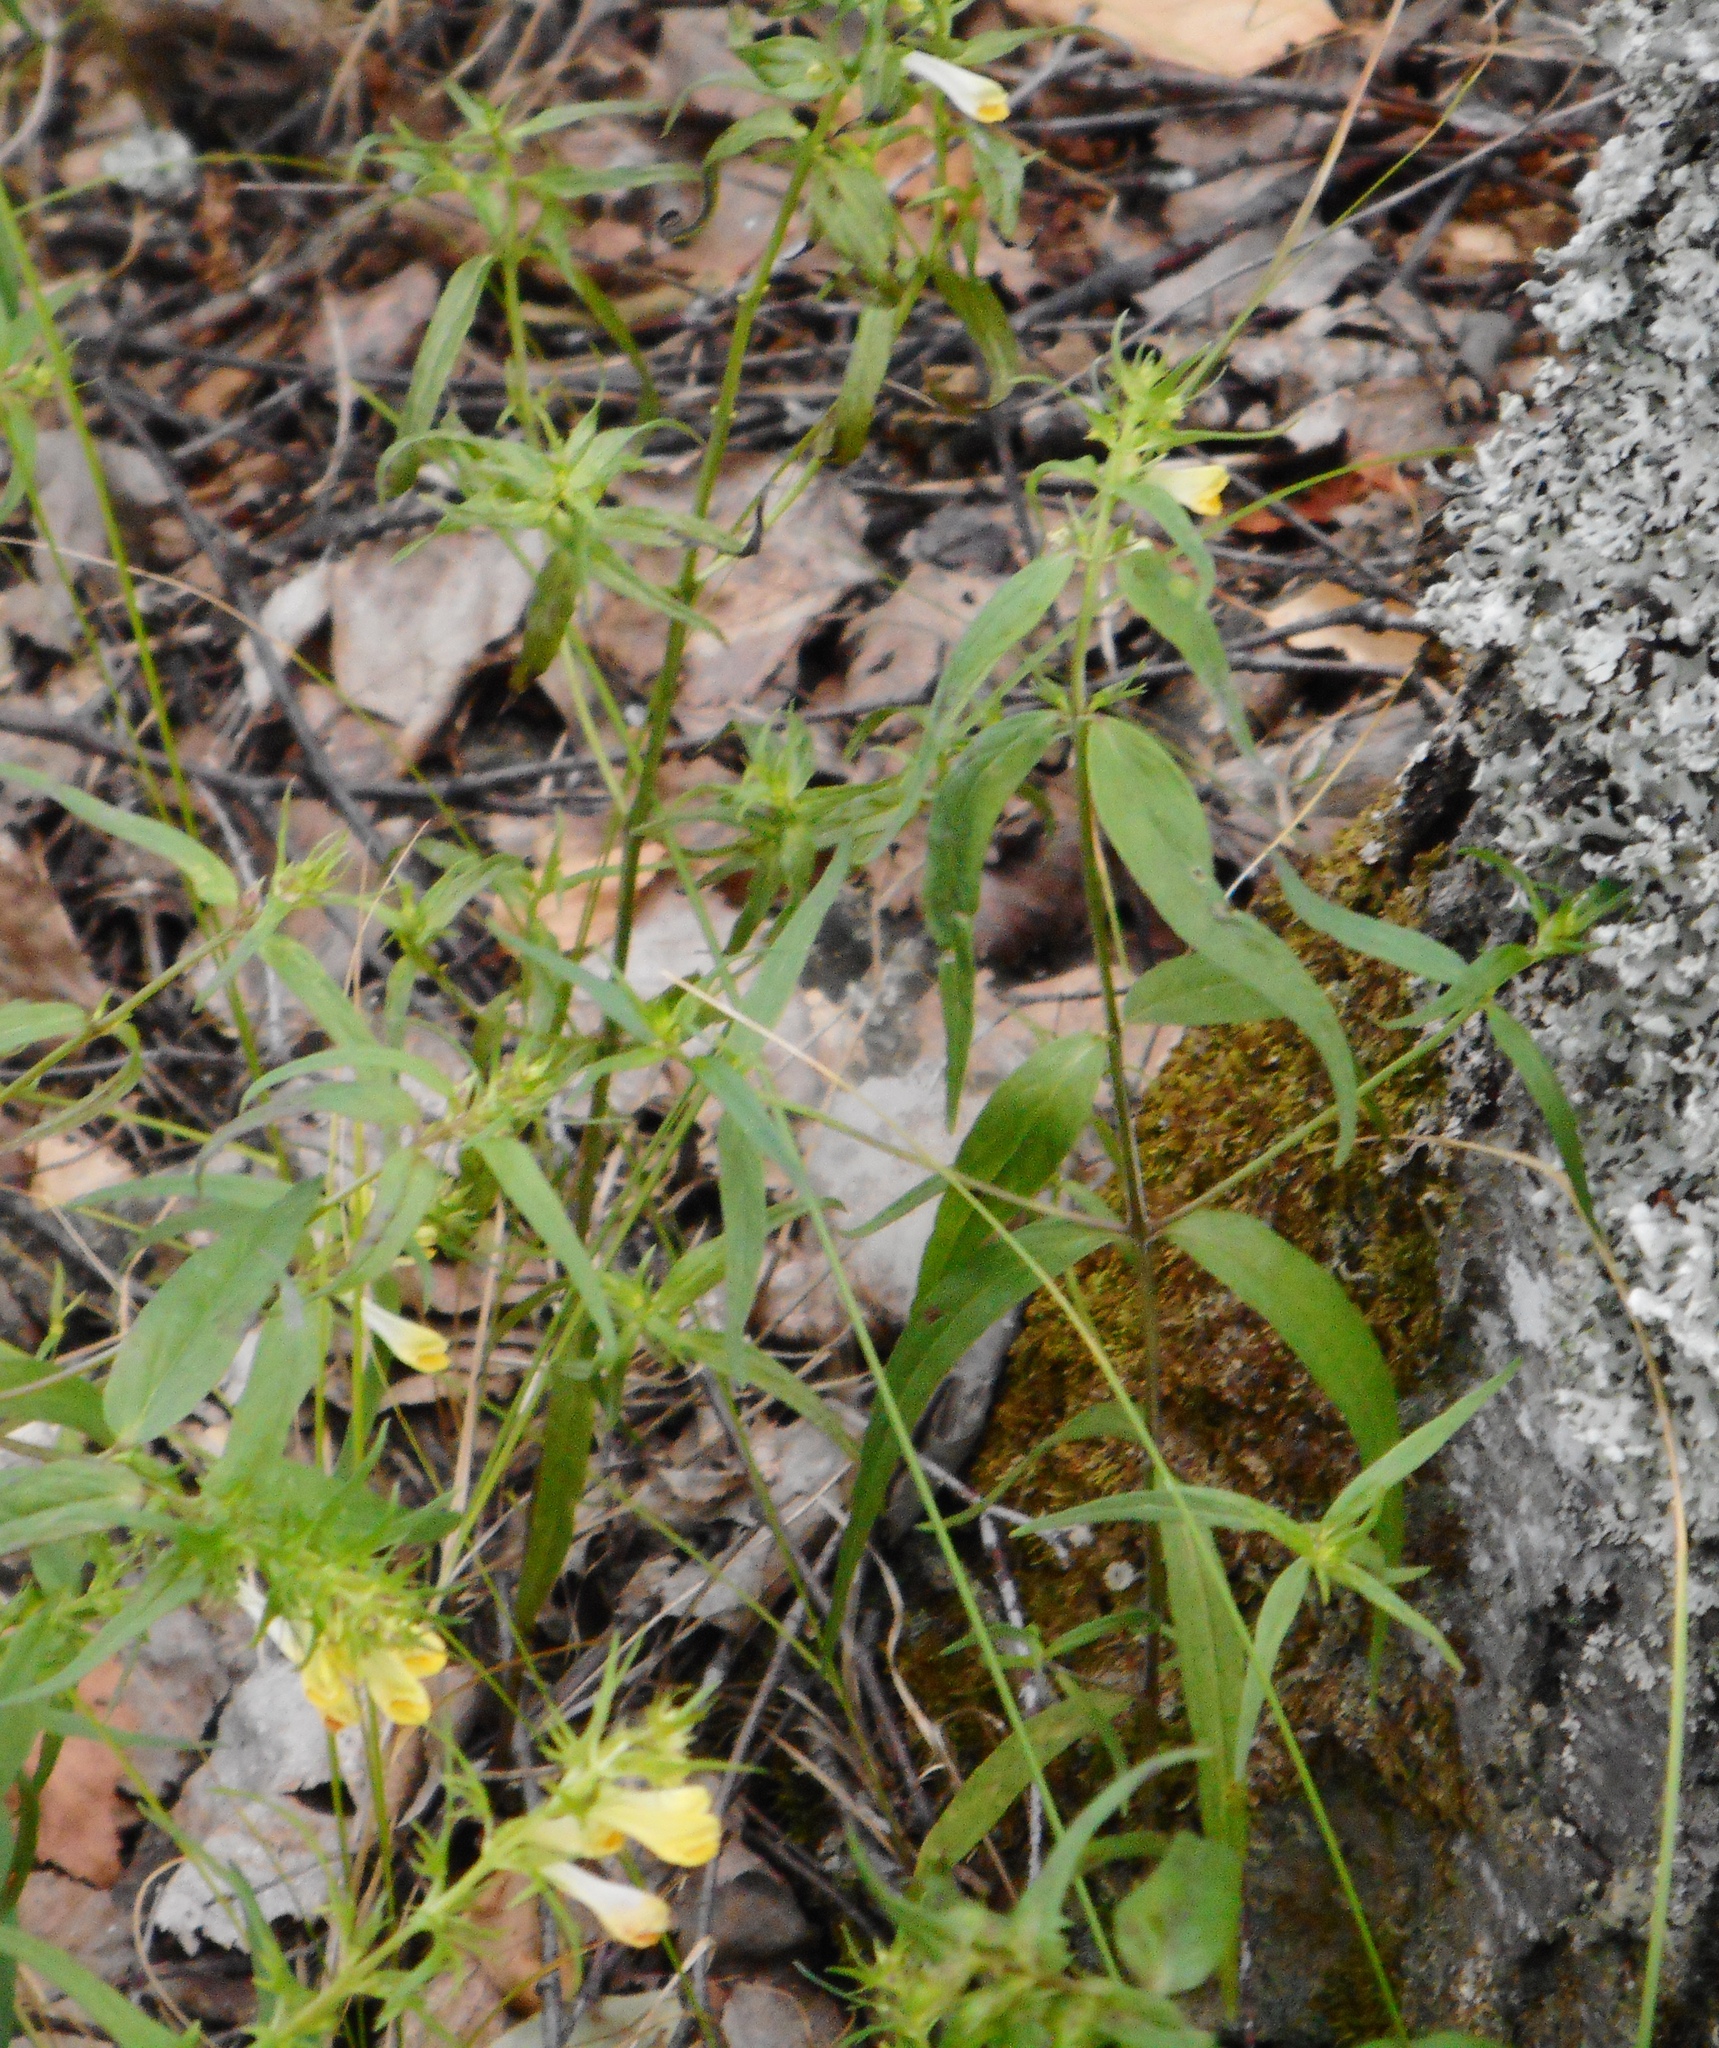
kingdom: Plantae
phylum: Tracheophyta
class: Magnoliopsida
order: Lamiales
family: Orobanchaceae
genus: Melampyrum
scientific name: Melampyrum pratense
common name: Common cow-wheat
